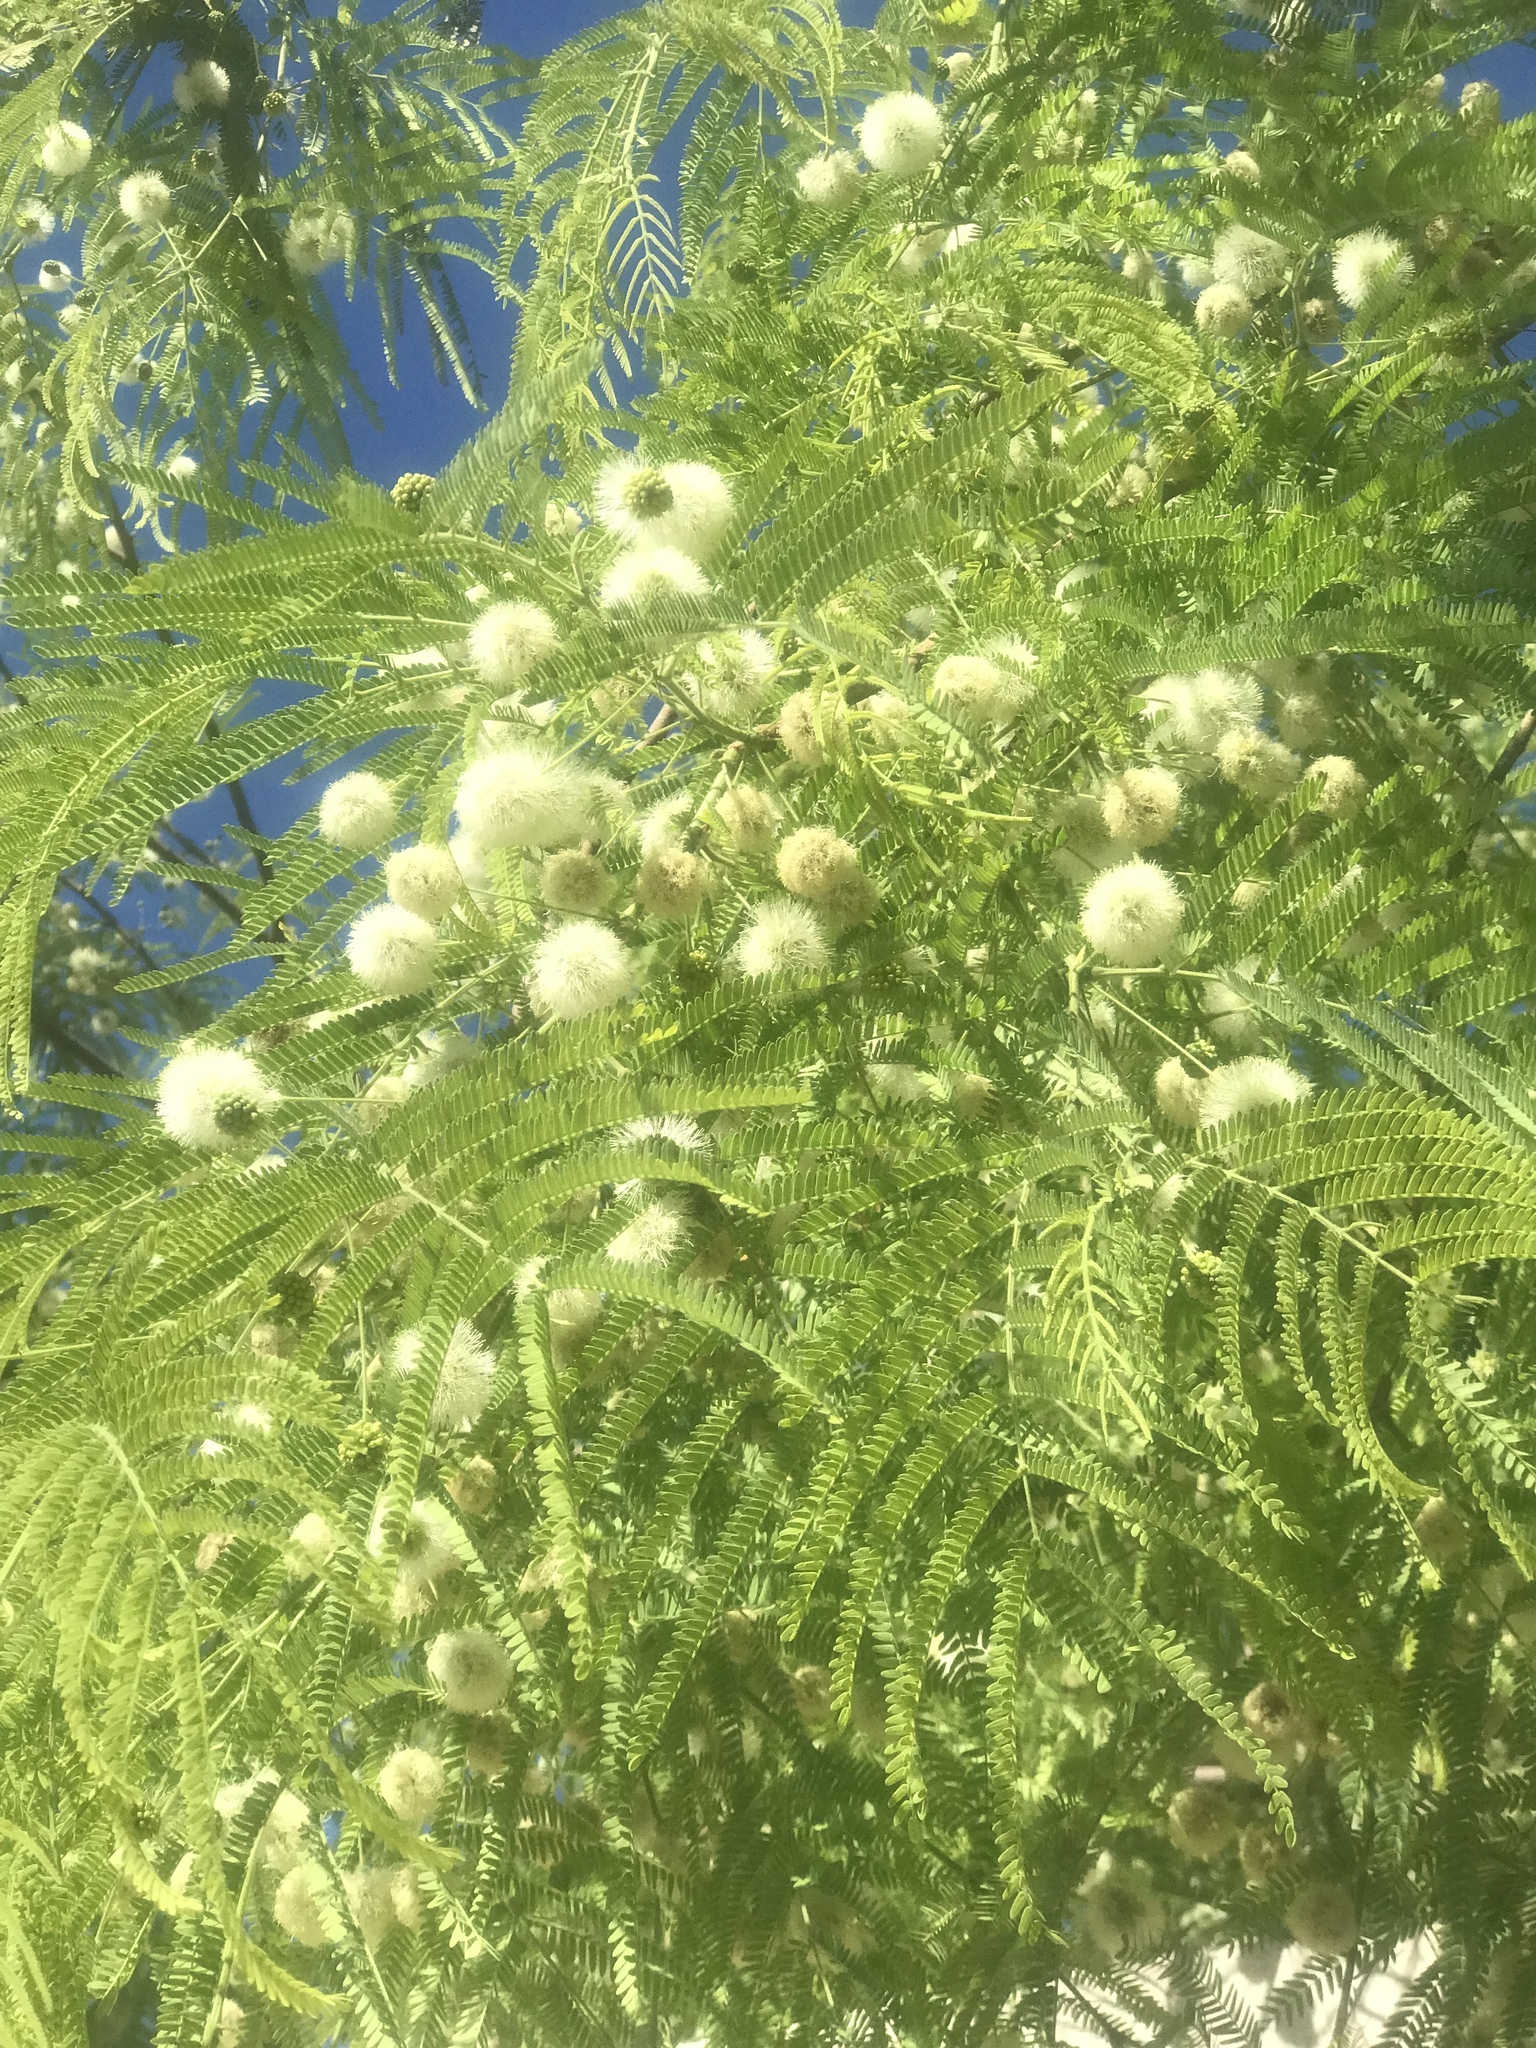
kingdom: Plantae
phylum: Tracheophyta
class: Magnoliopsida
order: Fabales
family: Fabaceae
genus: Leucaena
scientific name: Leucaena leucocephala
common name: White leadtree
